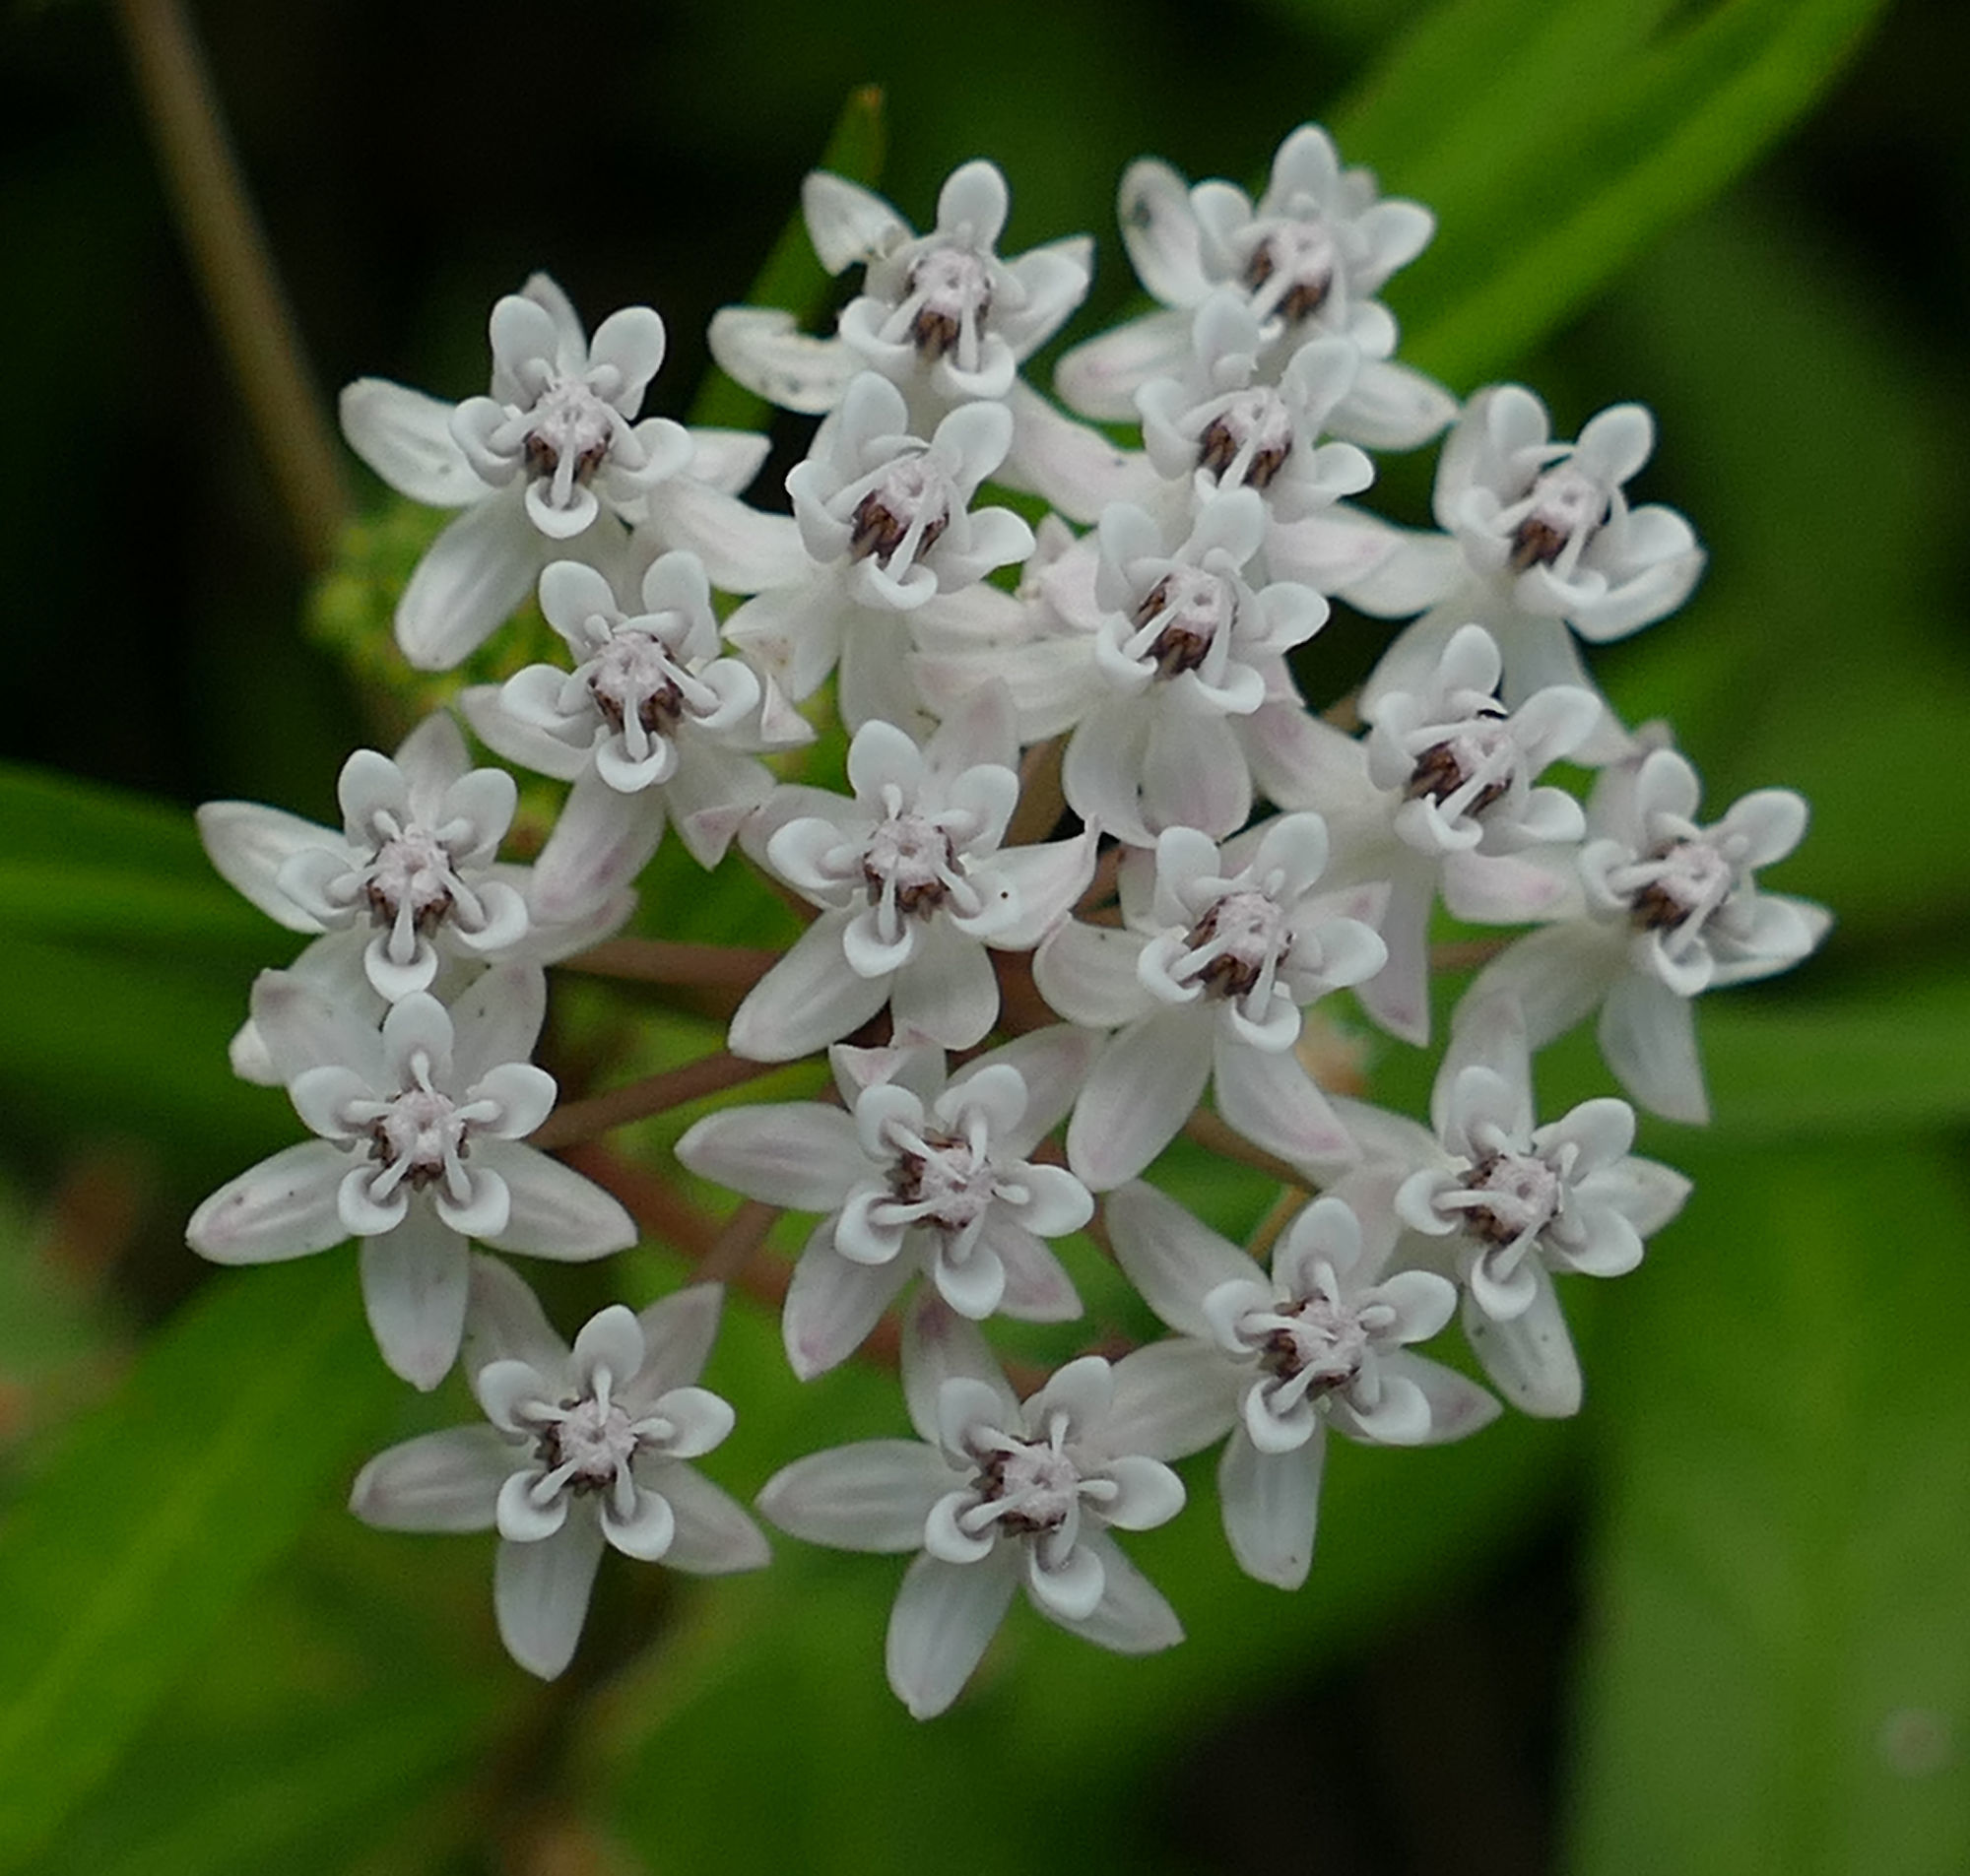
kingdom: Plantae
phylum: Tracheophyta
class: Magnoliopsida
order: Gentianales
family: Apocynaceae
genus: Asclepias
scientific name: Asclepias perennis
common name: Smooth-seed milkweed
